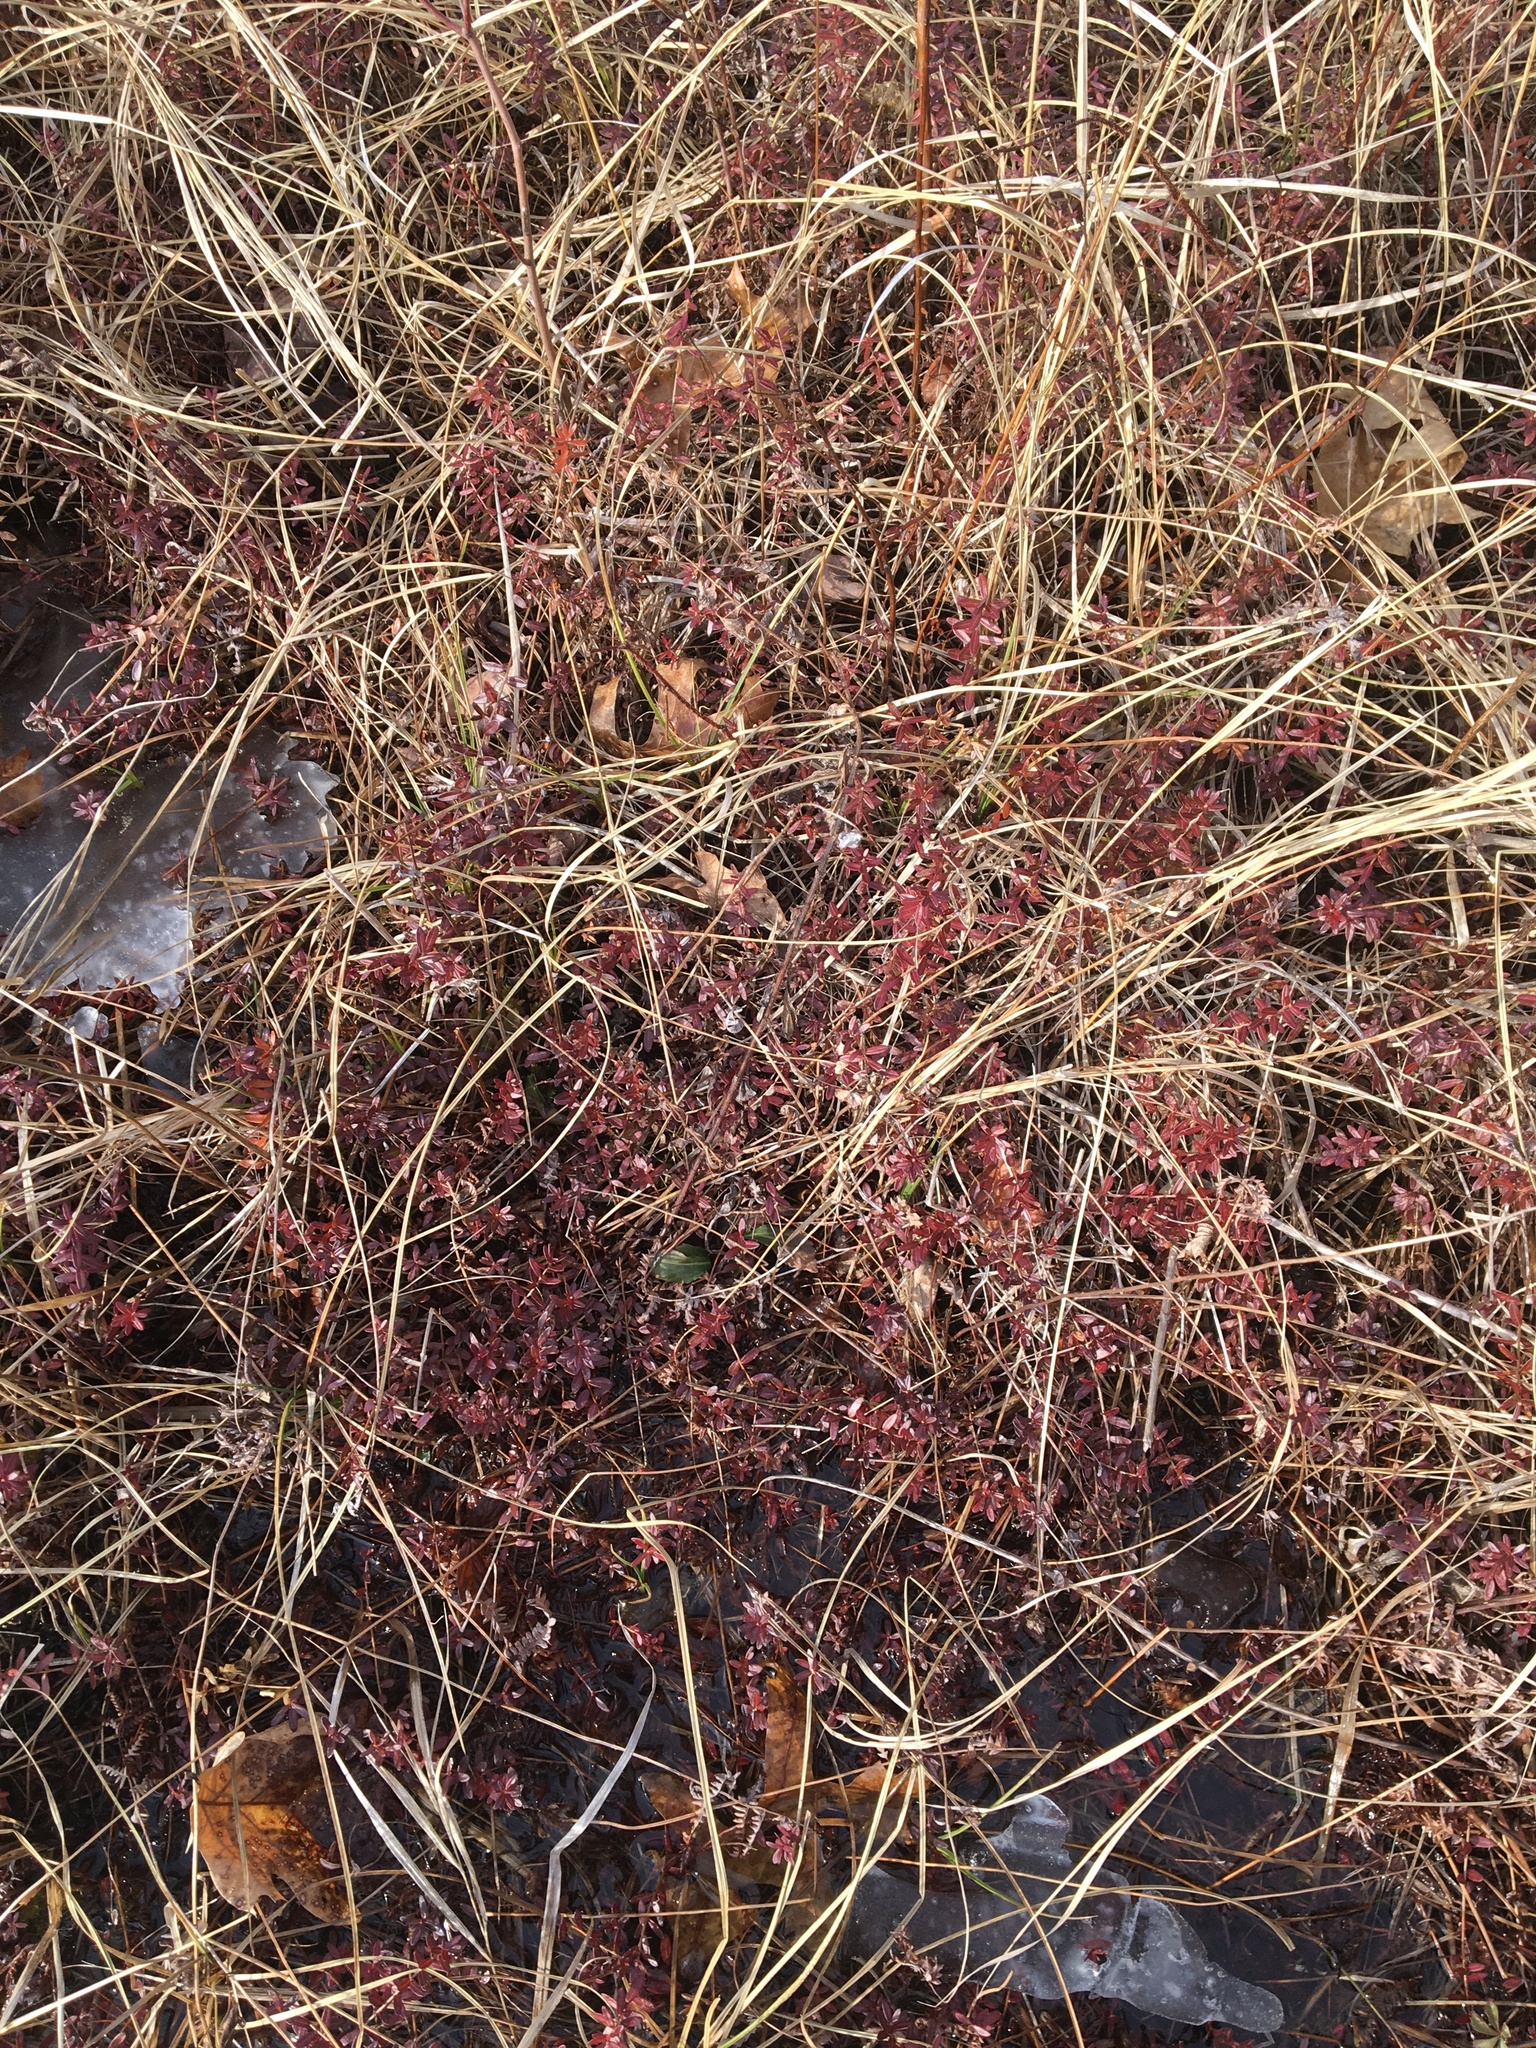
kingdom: Plantae
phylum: Tracheophyta
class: Magnoliopsida
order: Ericales
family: Ericaceae
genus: Vaccinium
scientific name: Vaccinium macrocarpon
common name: American cranberry
